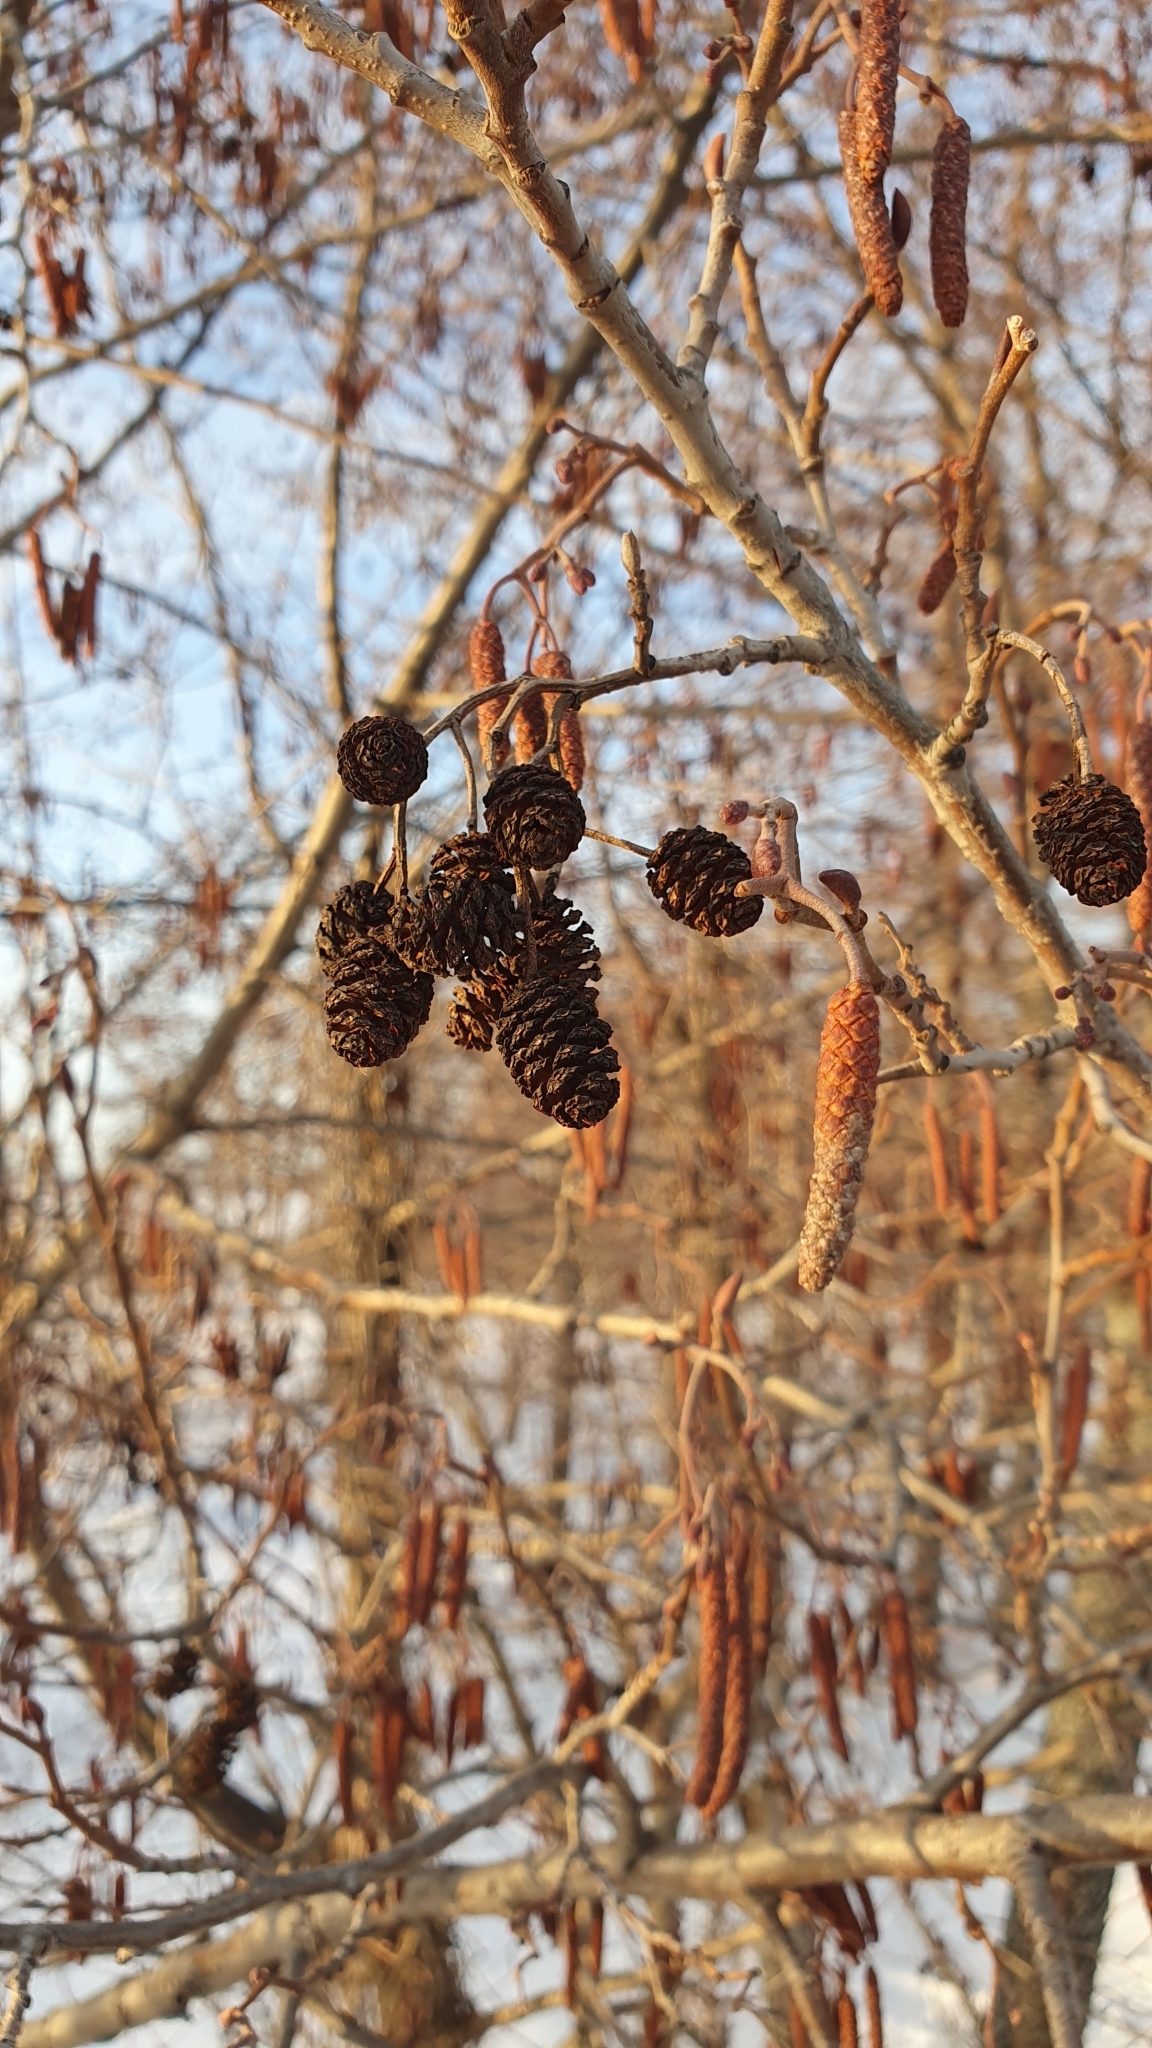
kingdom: Plantae
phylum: Tracheophyta
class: Magnoliopsida
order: Fagales
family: Betulaceae
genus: Alnus
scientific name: Alnus glutinosa
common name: Black alder
